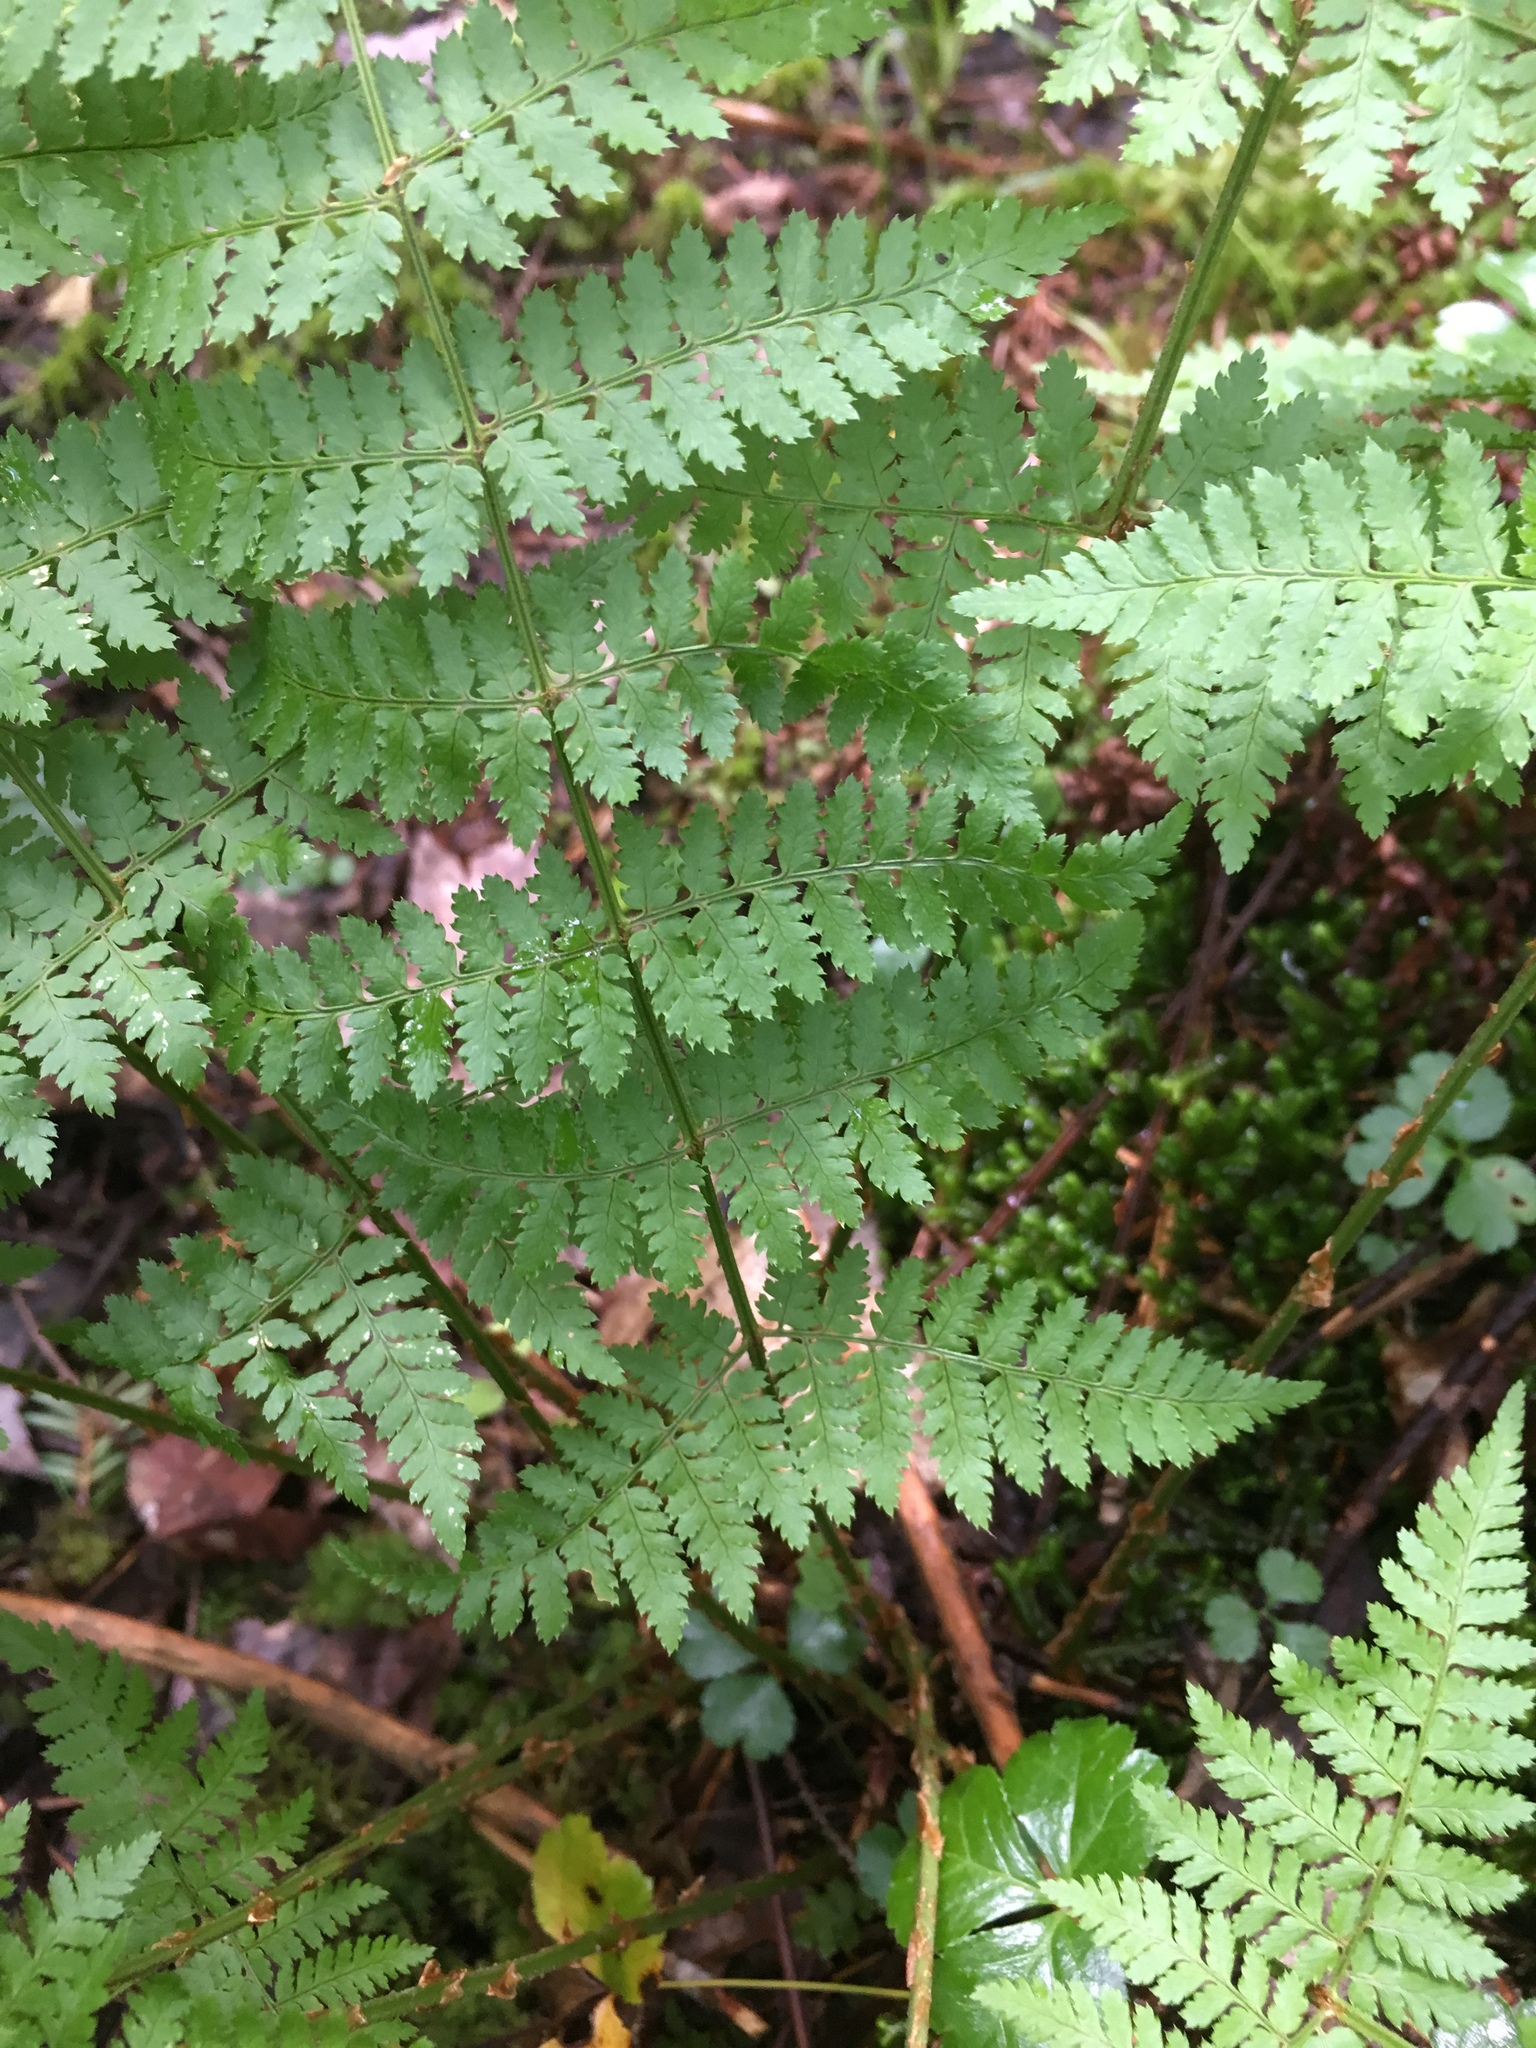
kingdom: Plantae
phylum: Tracheophyta
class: Polypodiopsida
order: Polypodiales
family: Dryopteridaceae
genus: Dryopteris
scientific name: Dryopteris intermedia
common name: Evergreen wood fern
